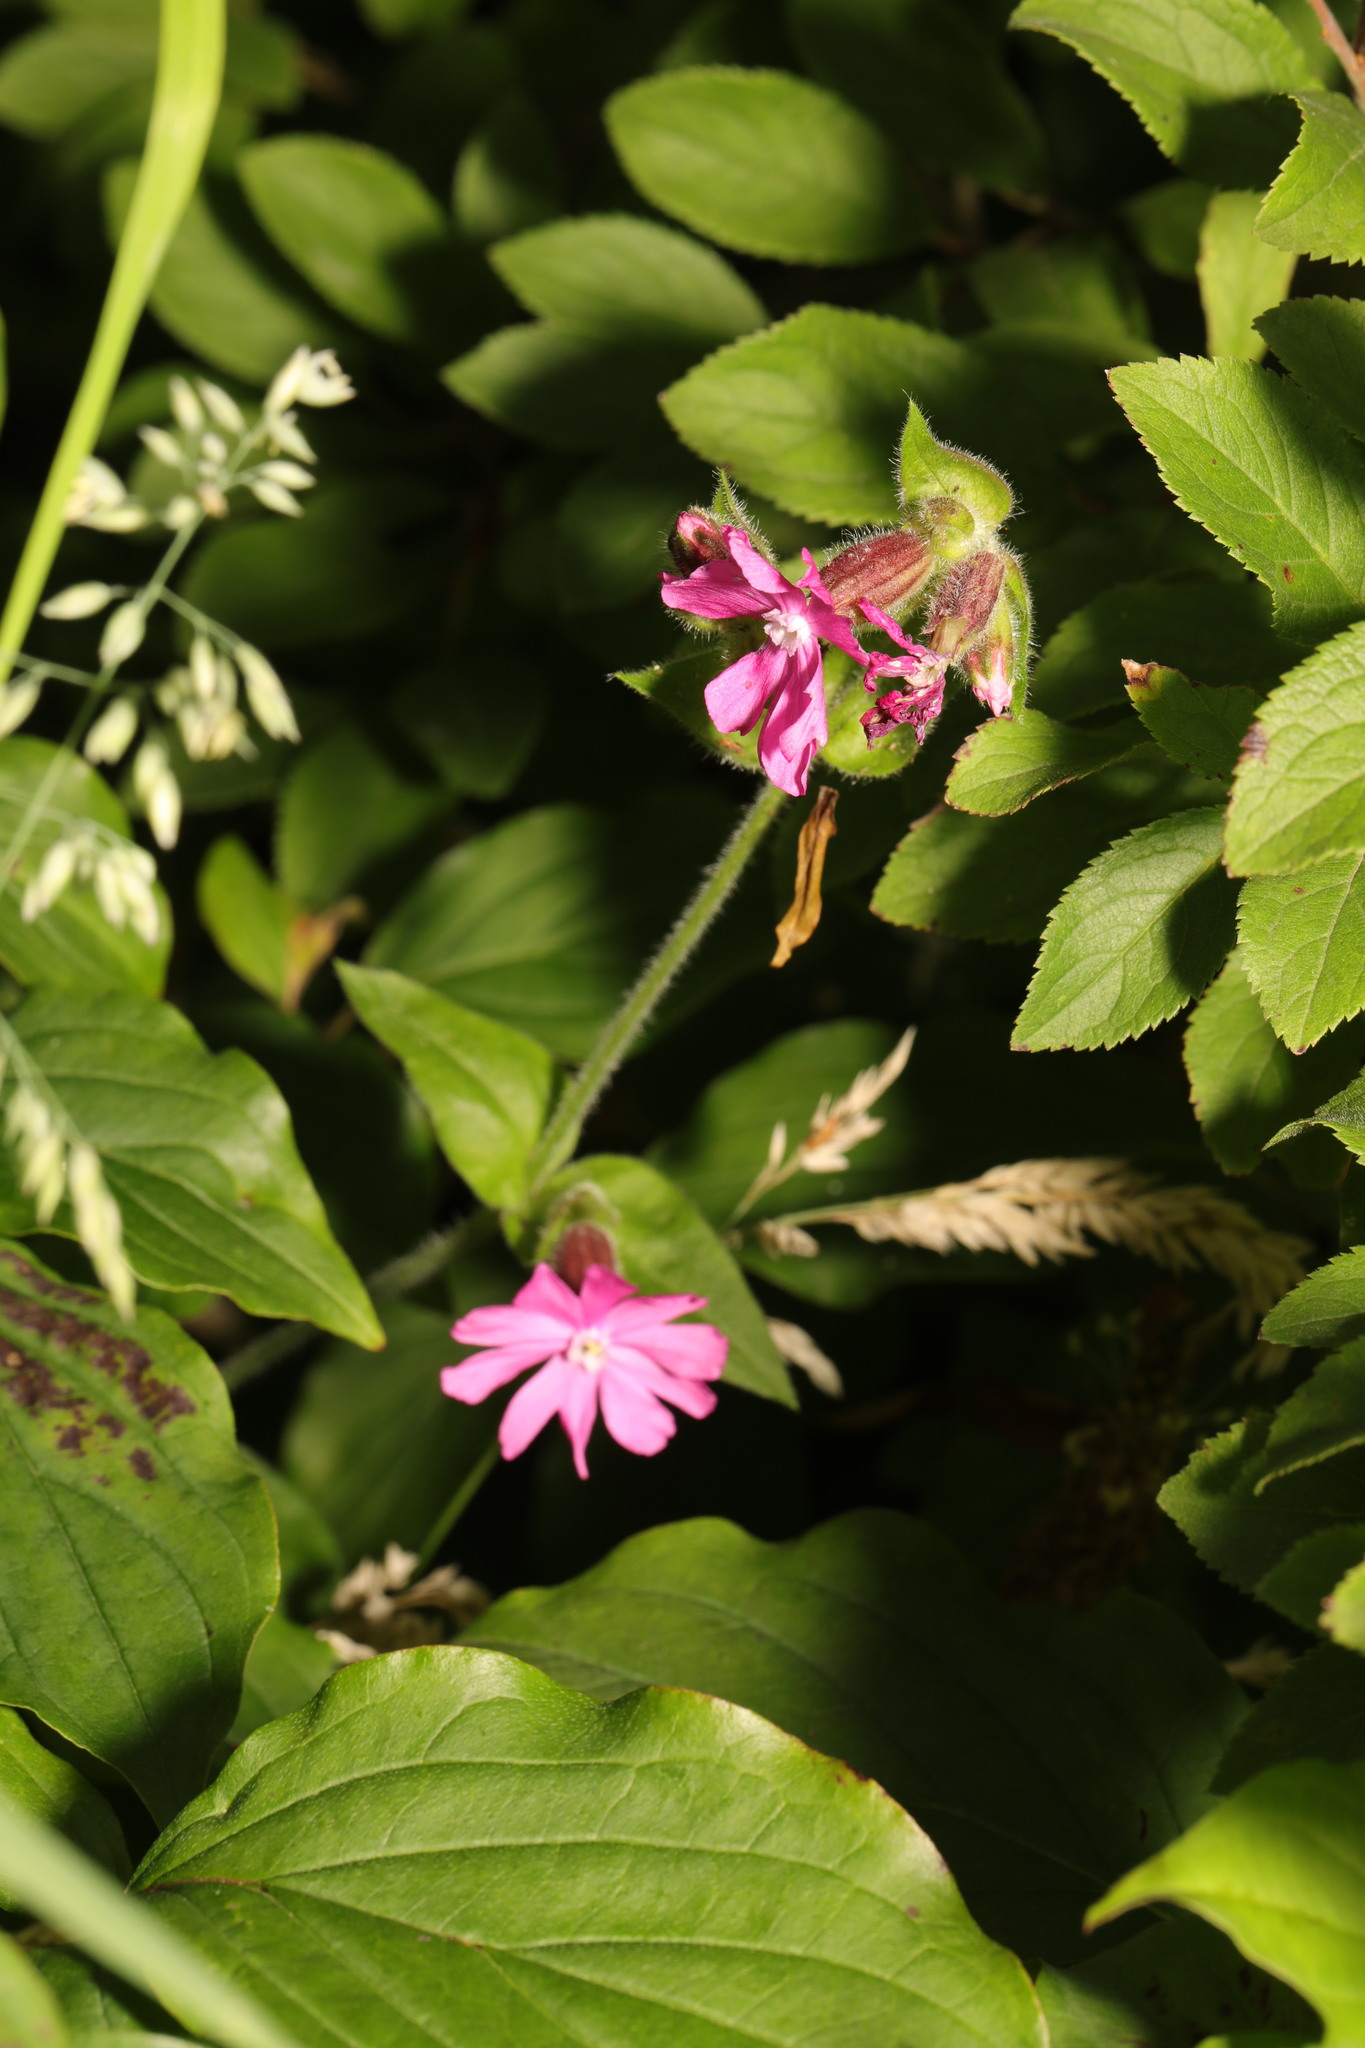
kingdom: Plantae
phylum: Tracheophyta
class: Magnoliopsida
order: Caryophyllales
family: Caryophyllaceae
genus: Silene
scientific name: Silene dioica
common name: Red campion
